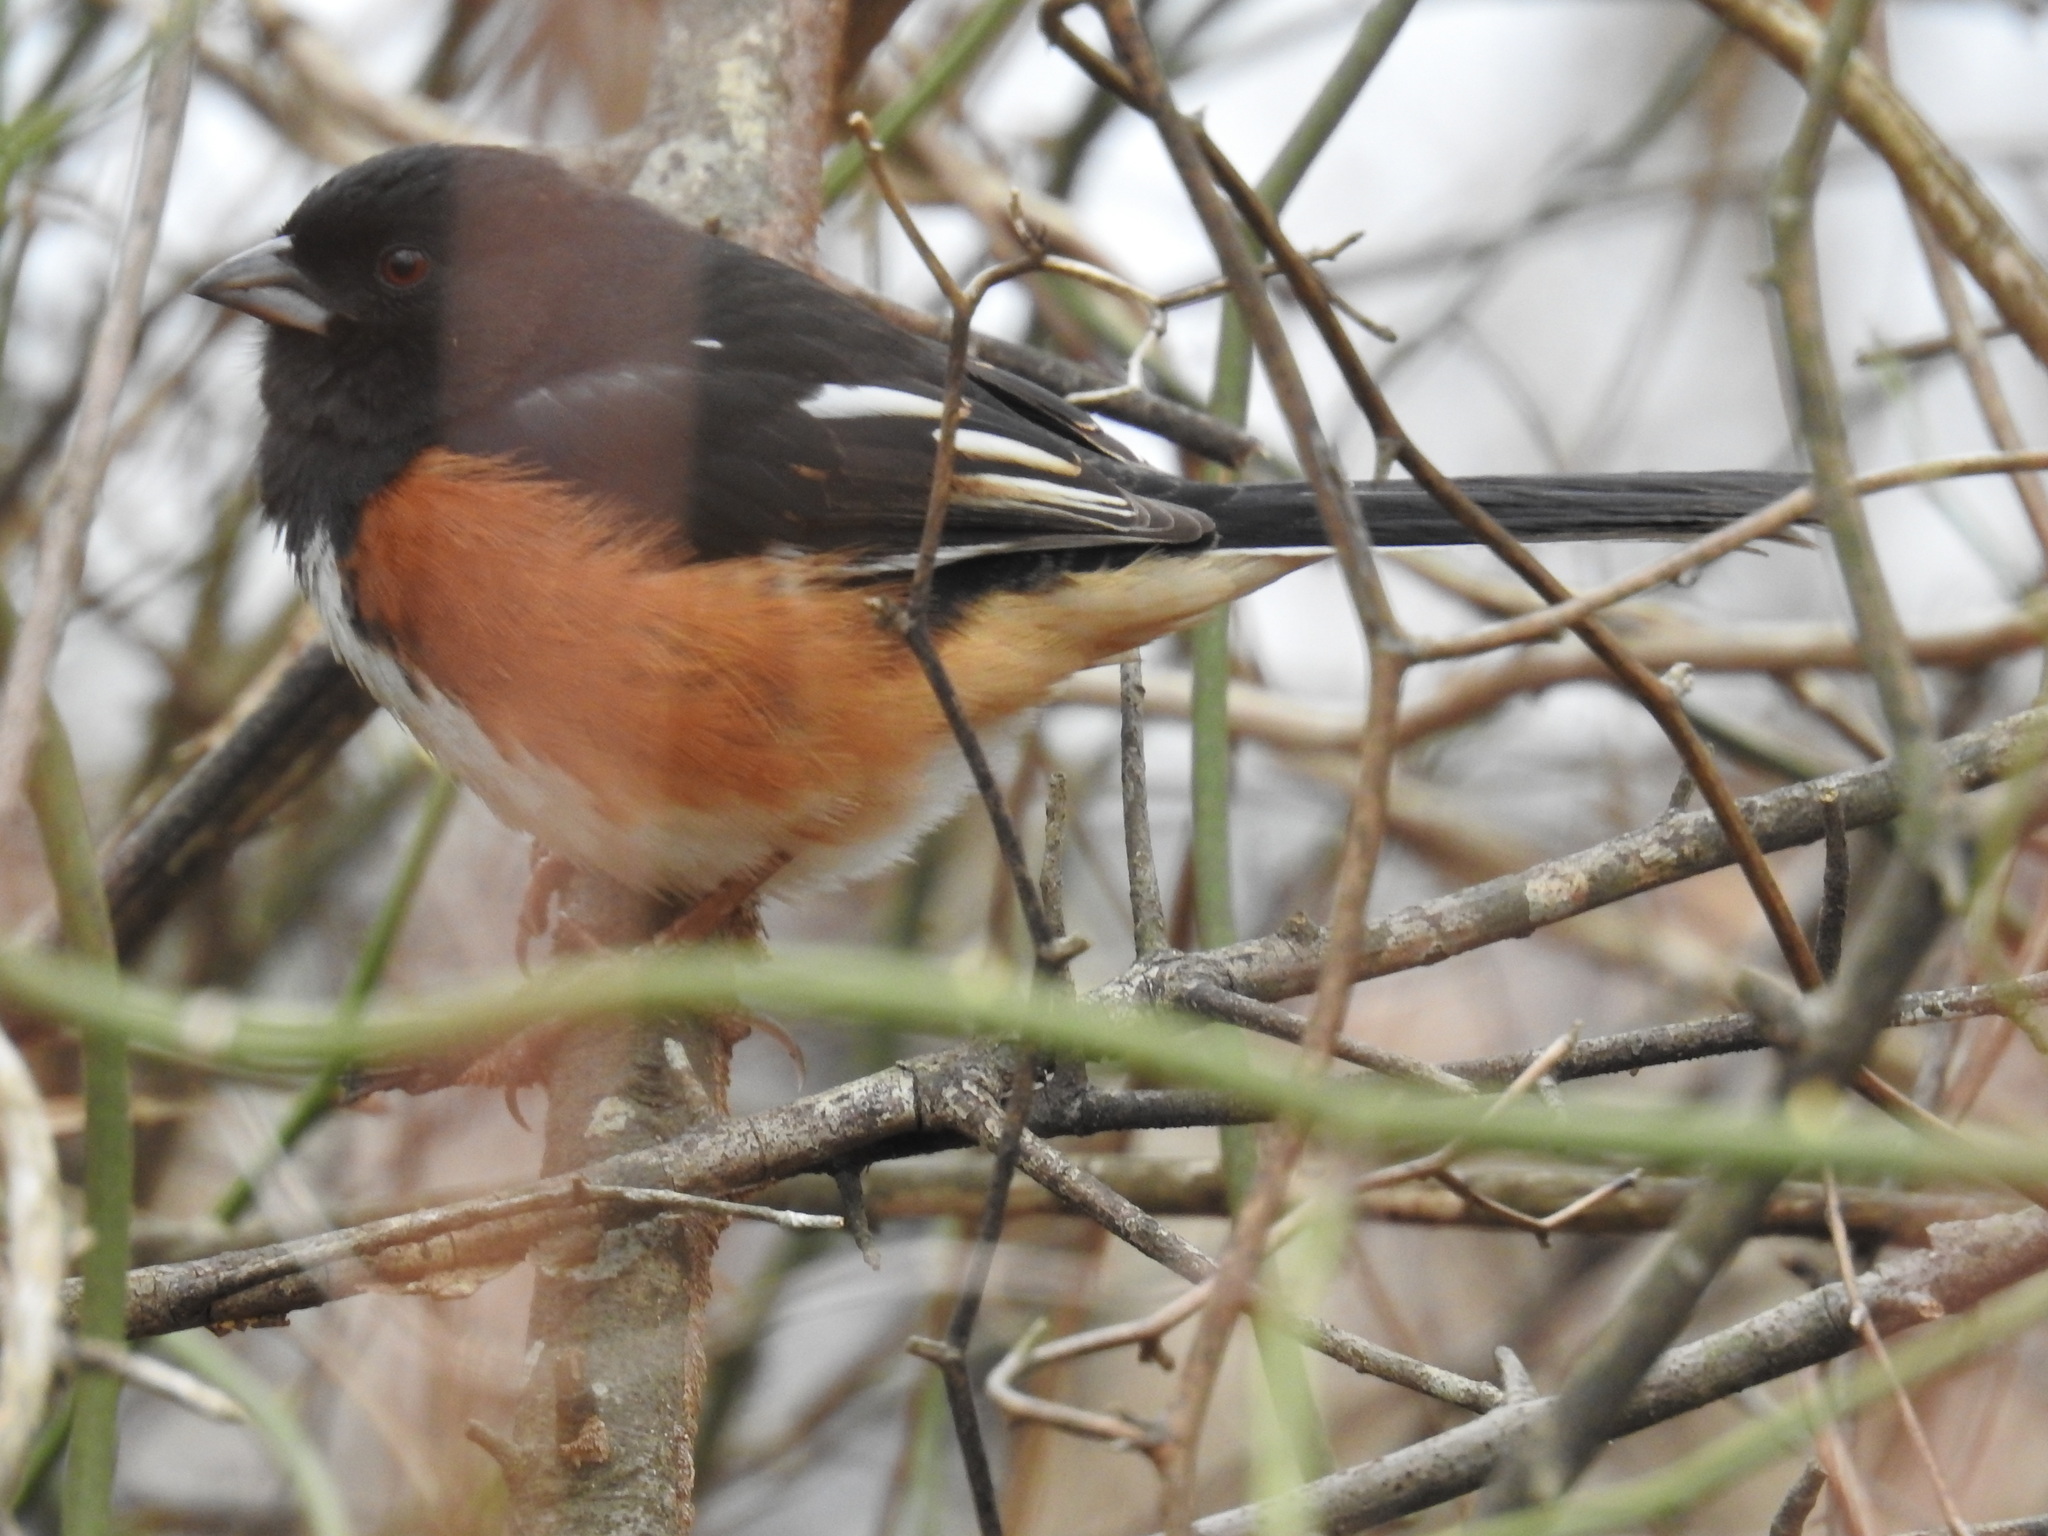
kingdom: Animalia
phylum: Chordata
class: Aves
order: Passeriformes
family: Passerellidae
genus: Pipilo
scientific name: Pipilo erythrophthalmus
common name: Eastern towhee
